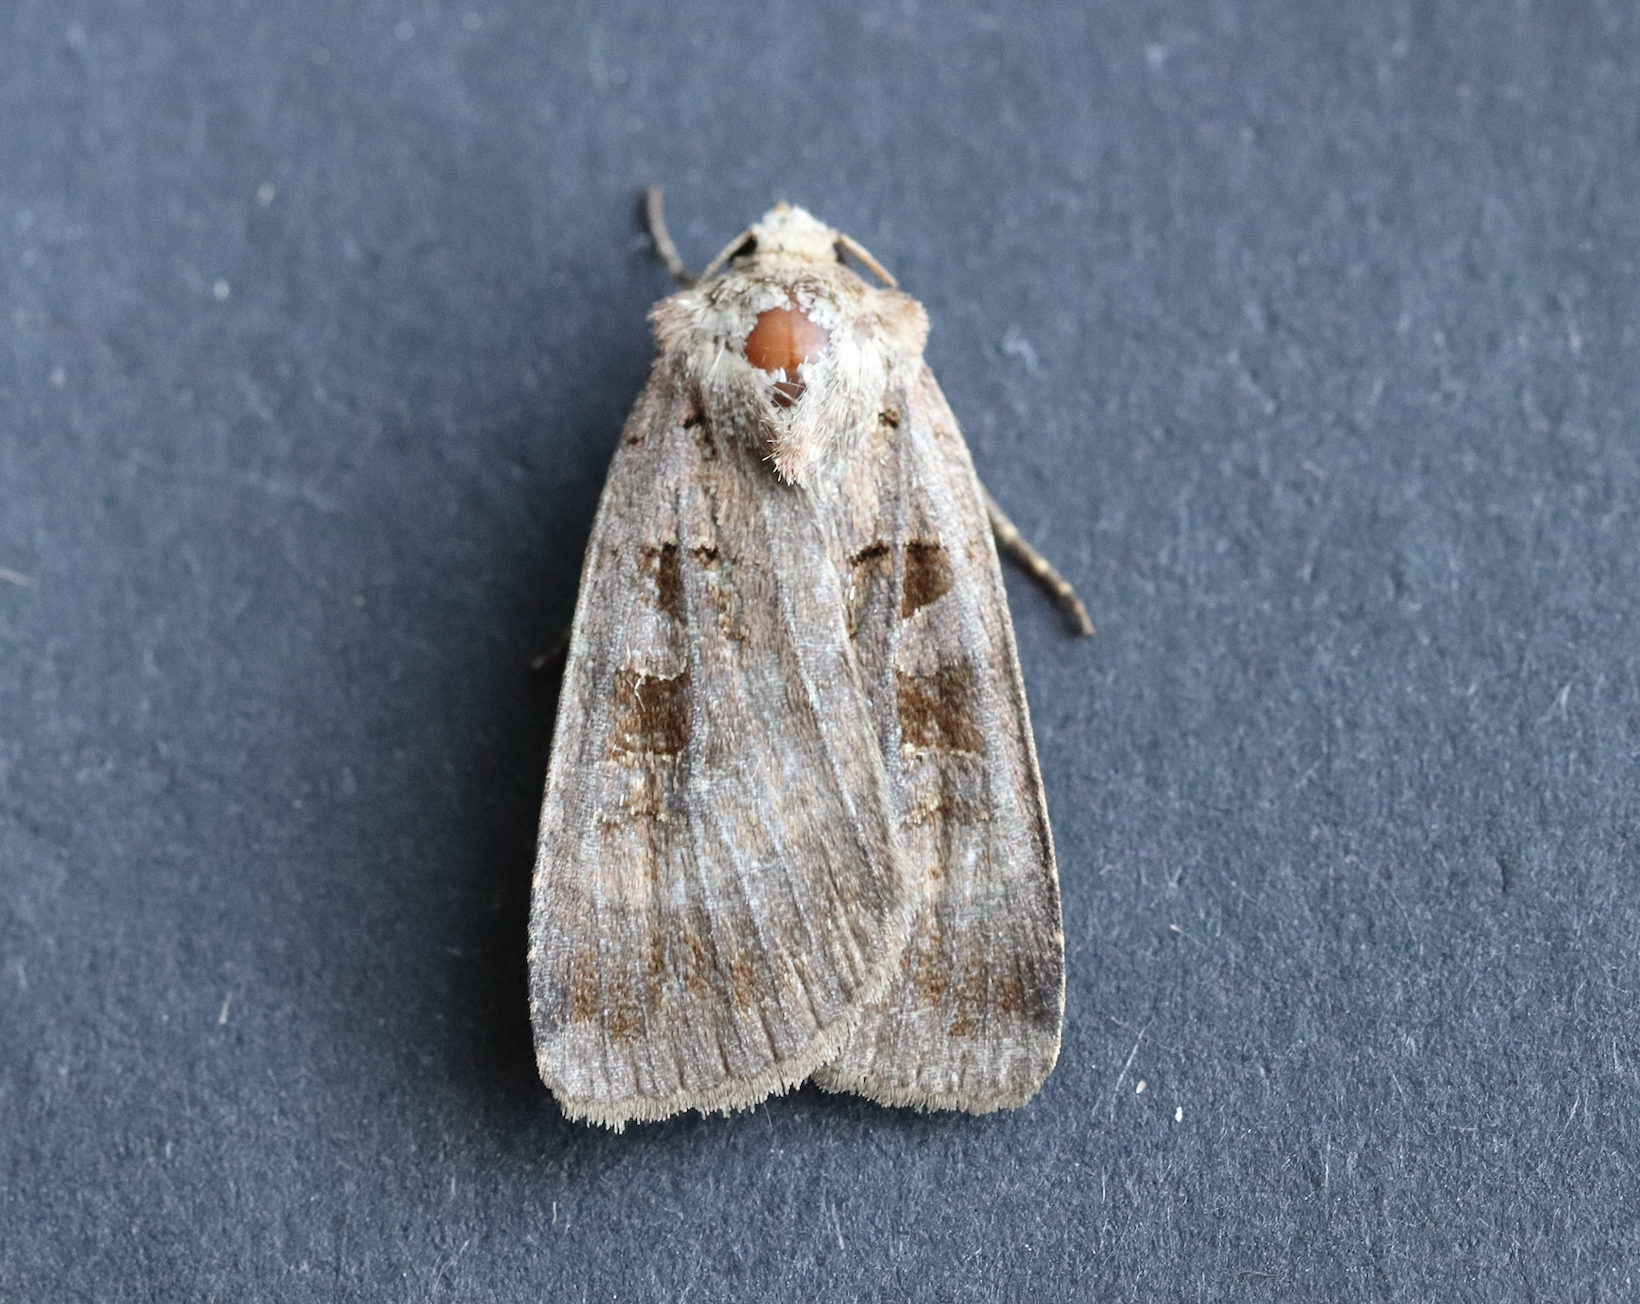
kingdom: Animalia
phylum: Arthropoda
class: Insecta
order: Lepidoptera
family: Noctuidae
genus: Xestia
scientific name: Xestia stigmatica
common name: Square-spotted clay
